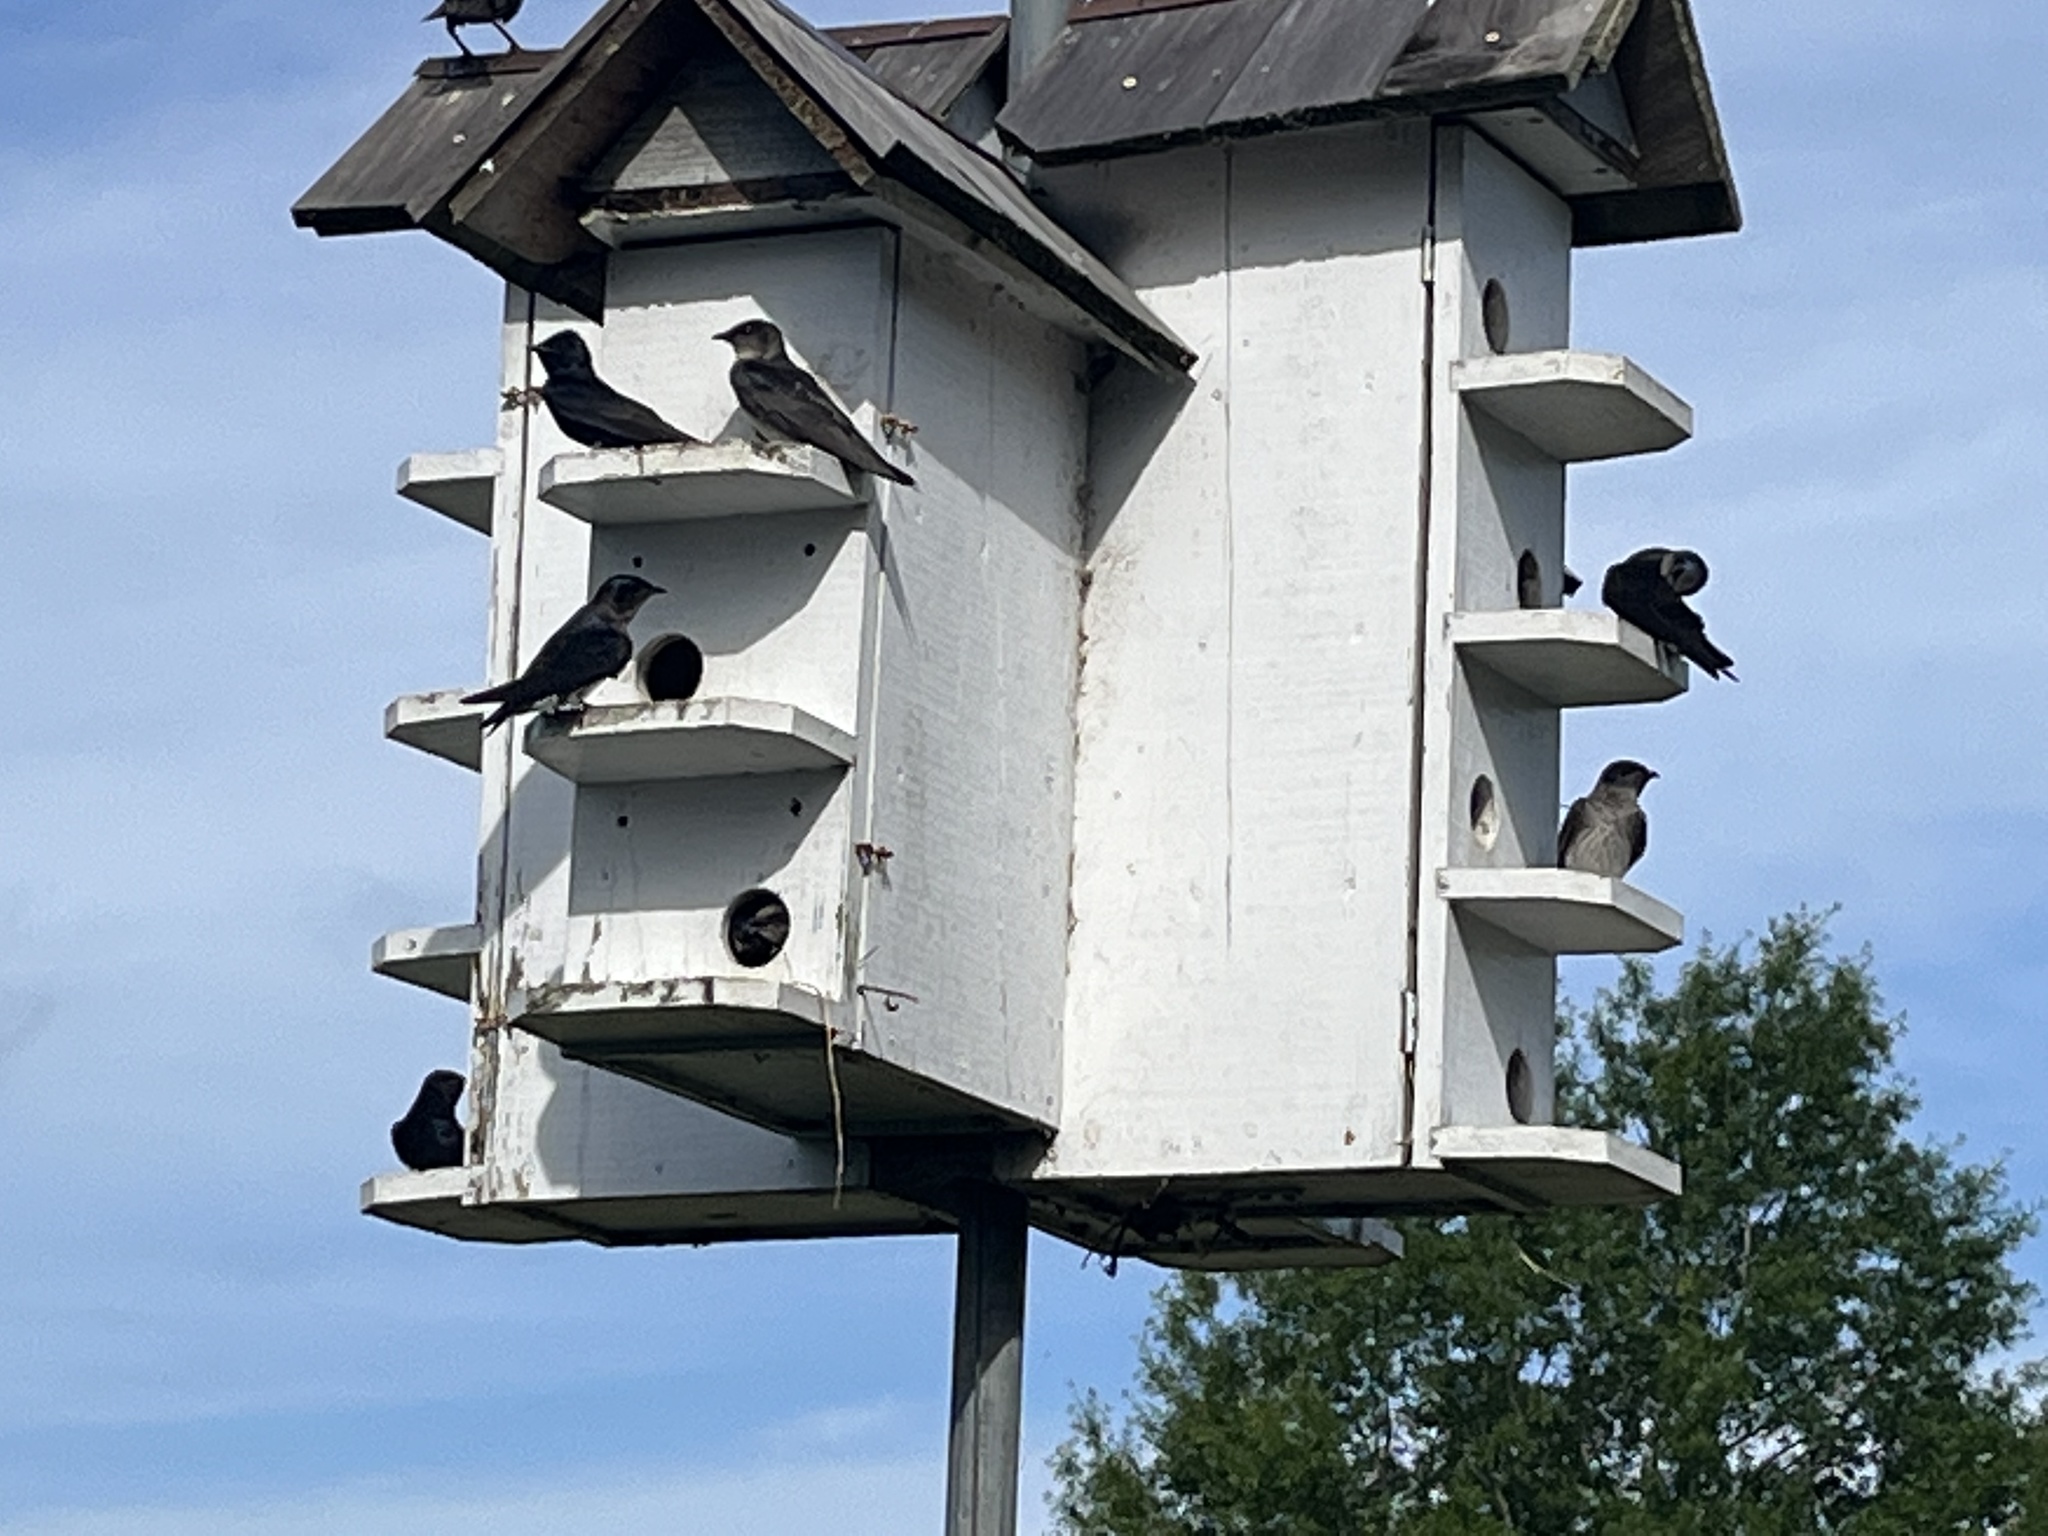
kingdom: Animalia
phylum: Chordata
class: Aves
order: Passeriformes
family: Hirundinidae
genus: Progne
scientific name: Progne subis
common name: Purple martin
